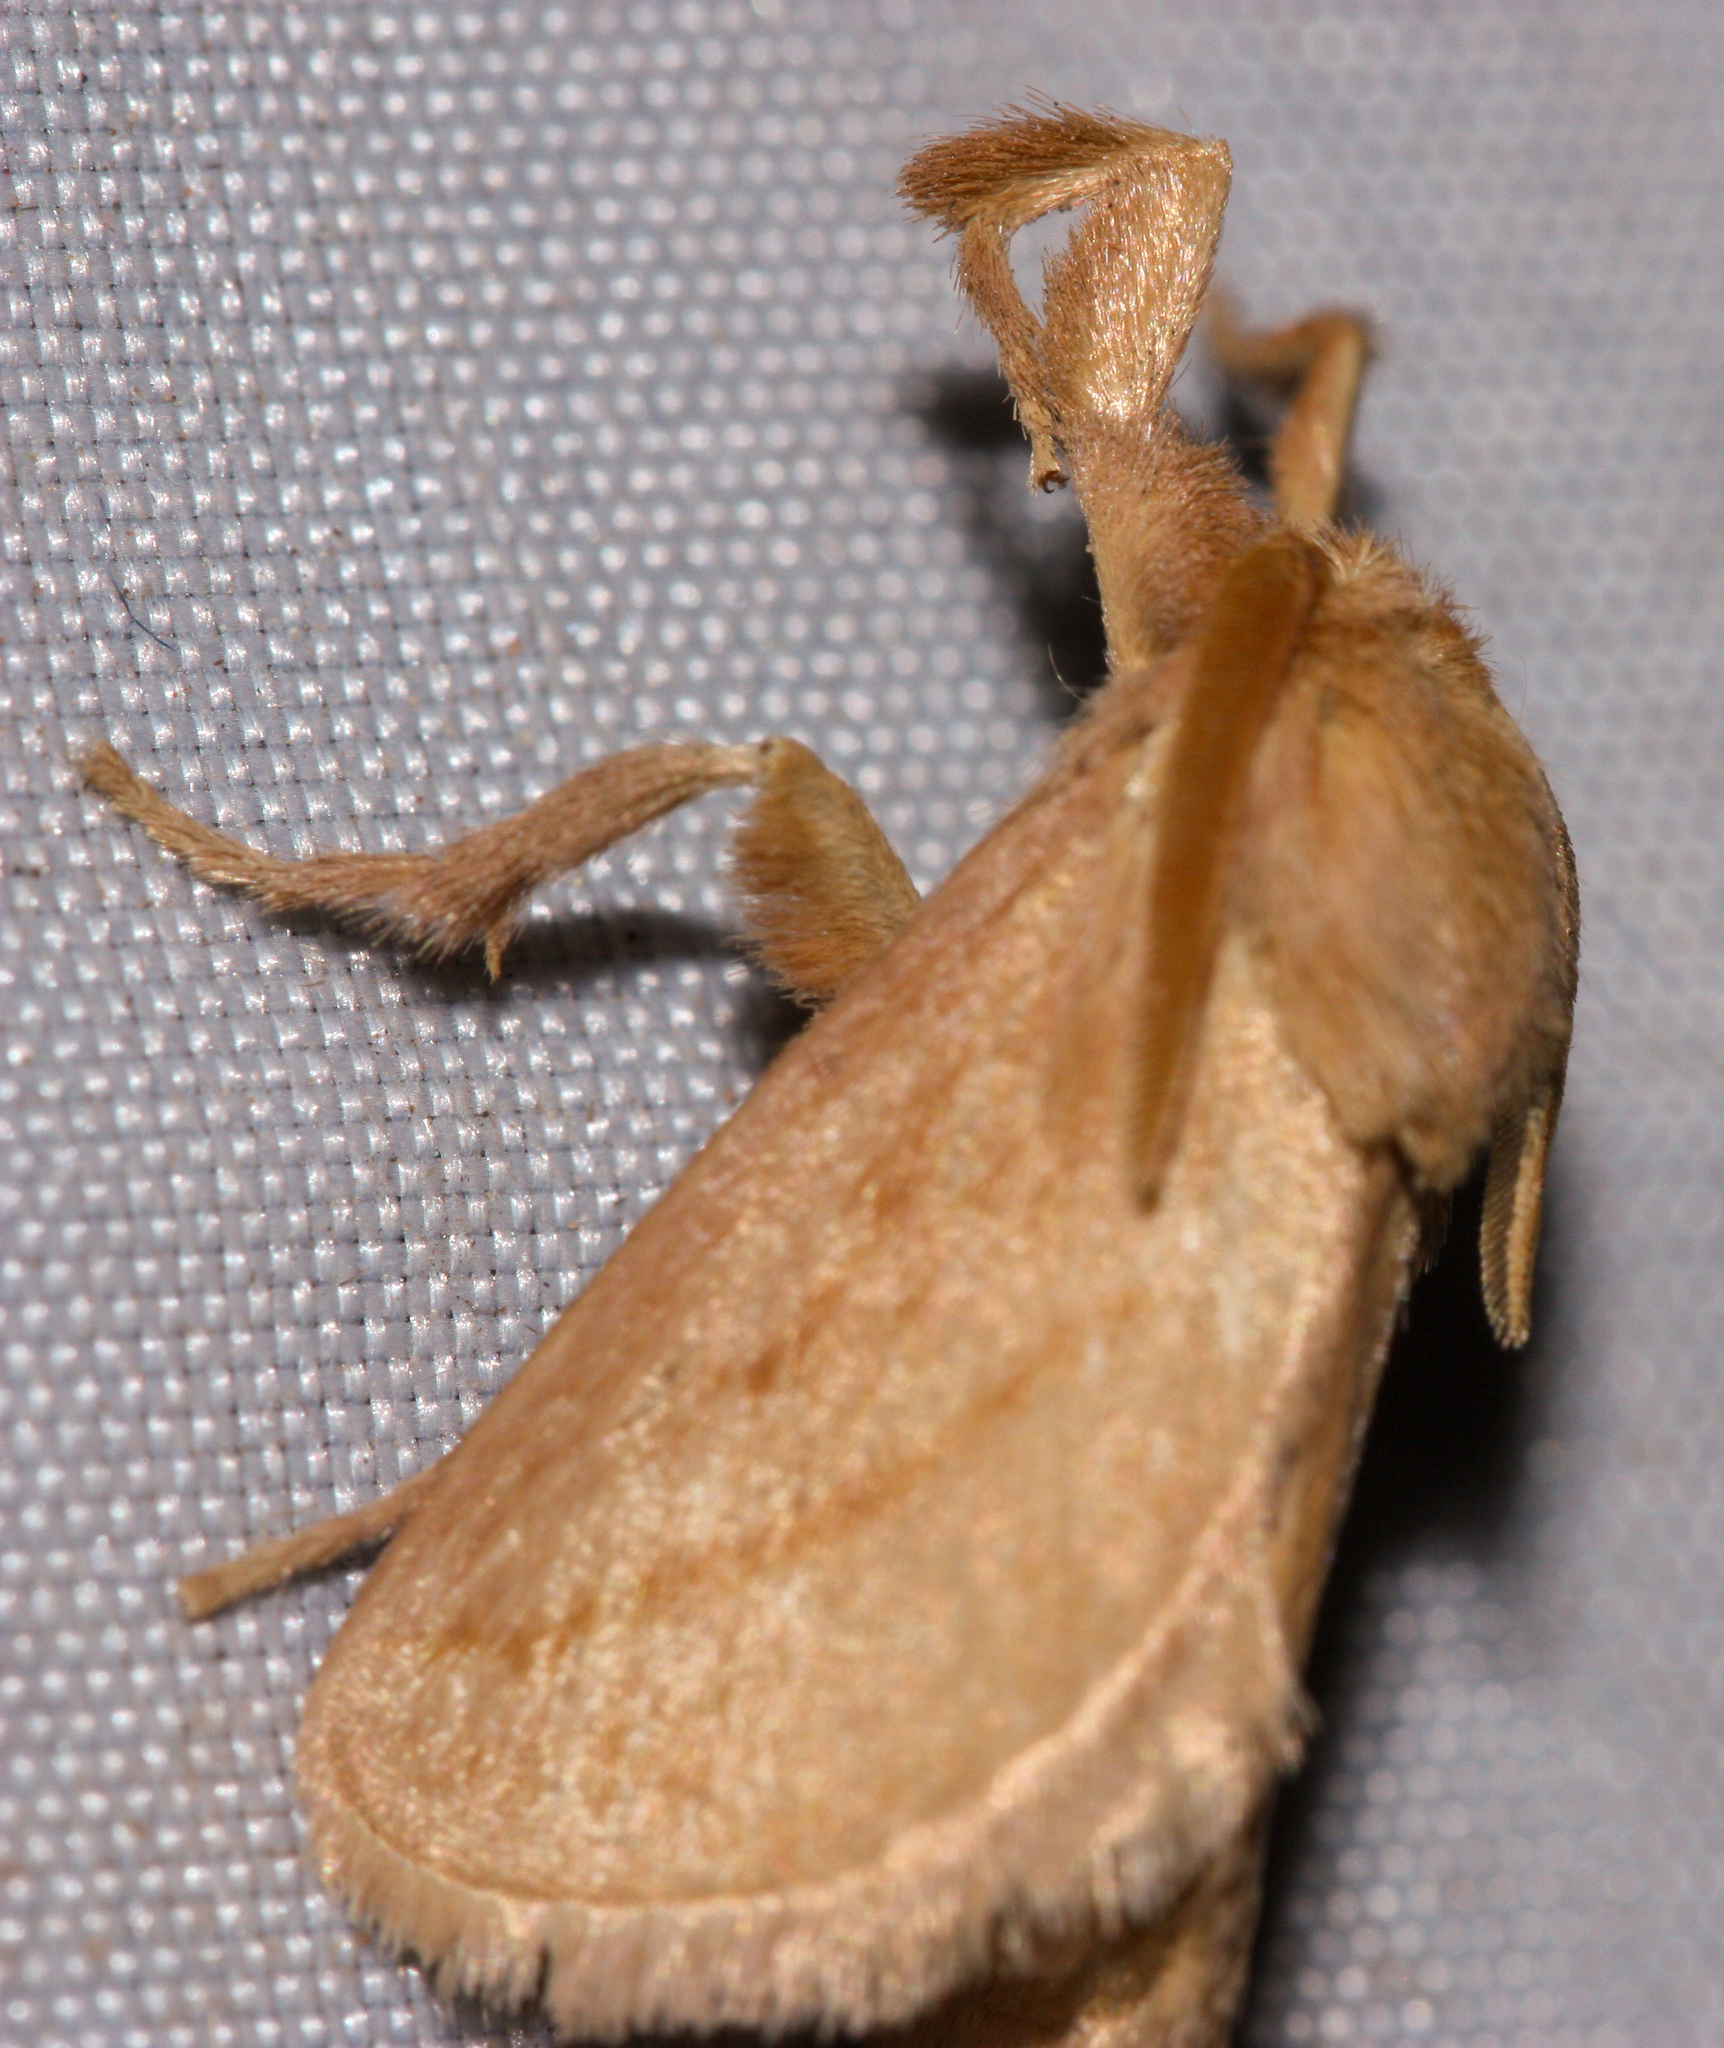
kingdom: Animalia
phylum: Arthropoda
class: Insecta
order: Lepidoptera
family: Limacodidae
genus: Perola
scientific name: Perola clara
